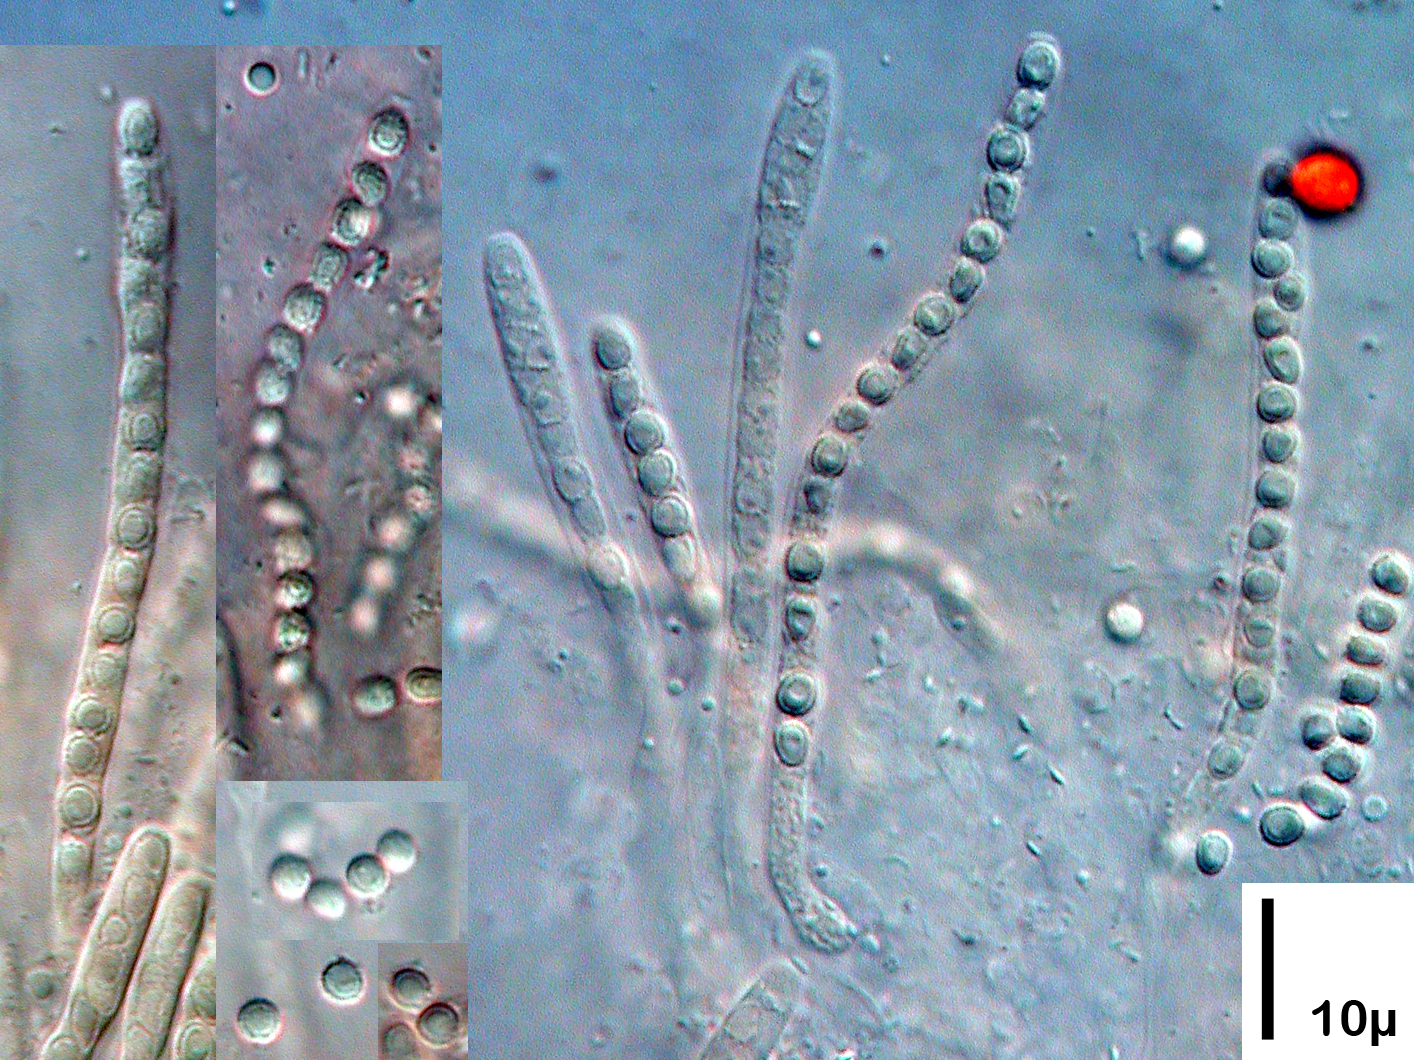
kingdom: Fungi
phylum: Ascomycota
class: Sordariomycetes
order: Hypocreales
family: Hypocreaceae
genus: Trichoderma
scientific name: Trichoderma viride
